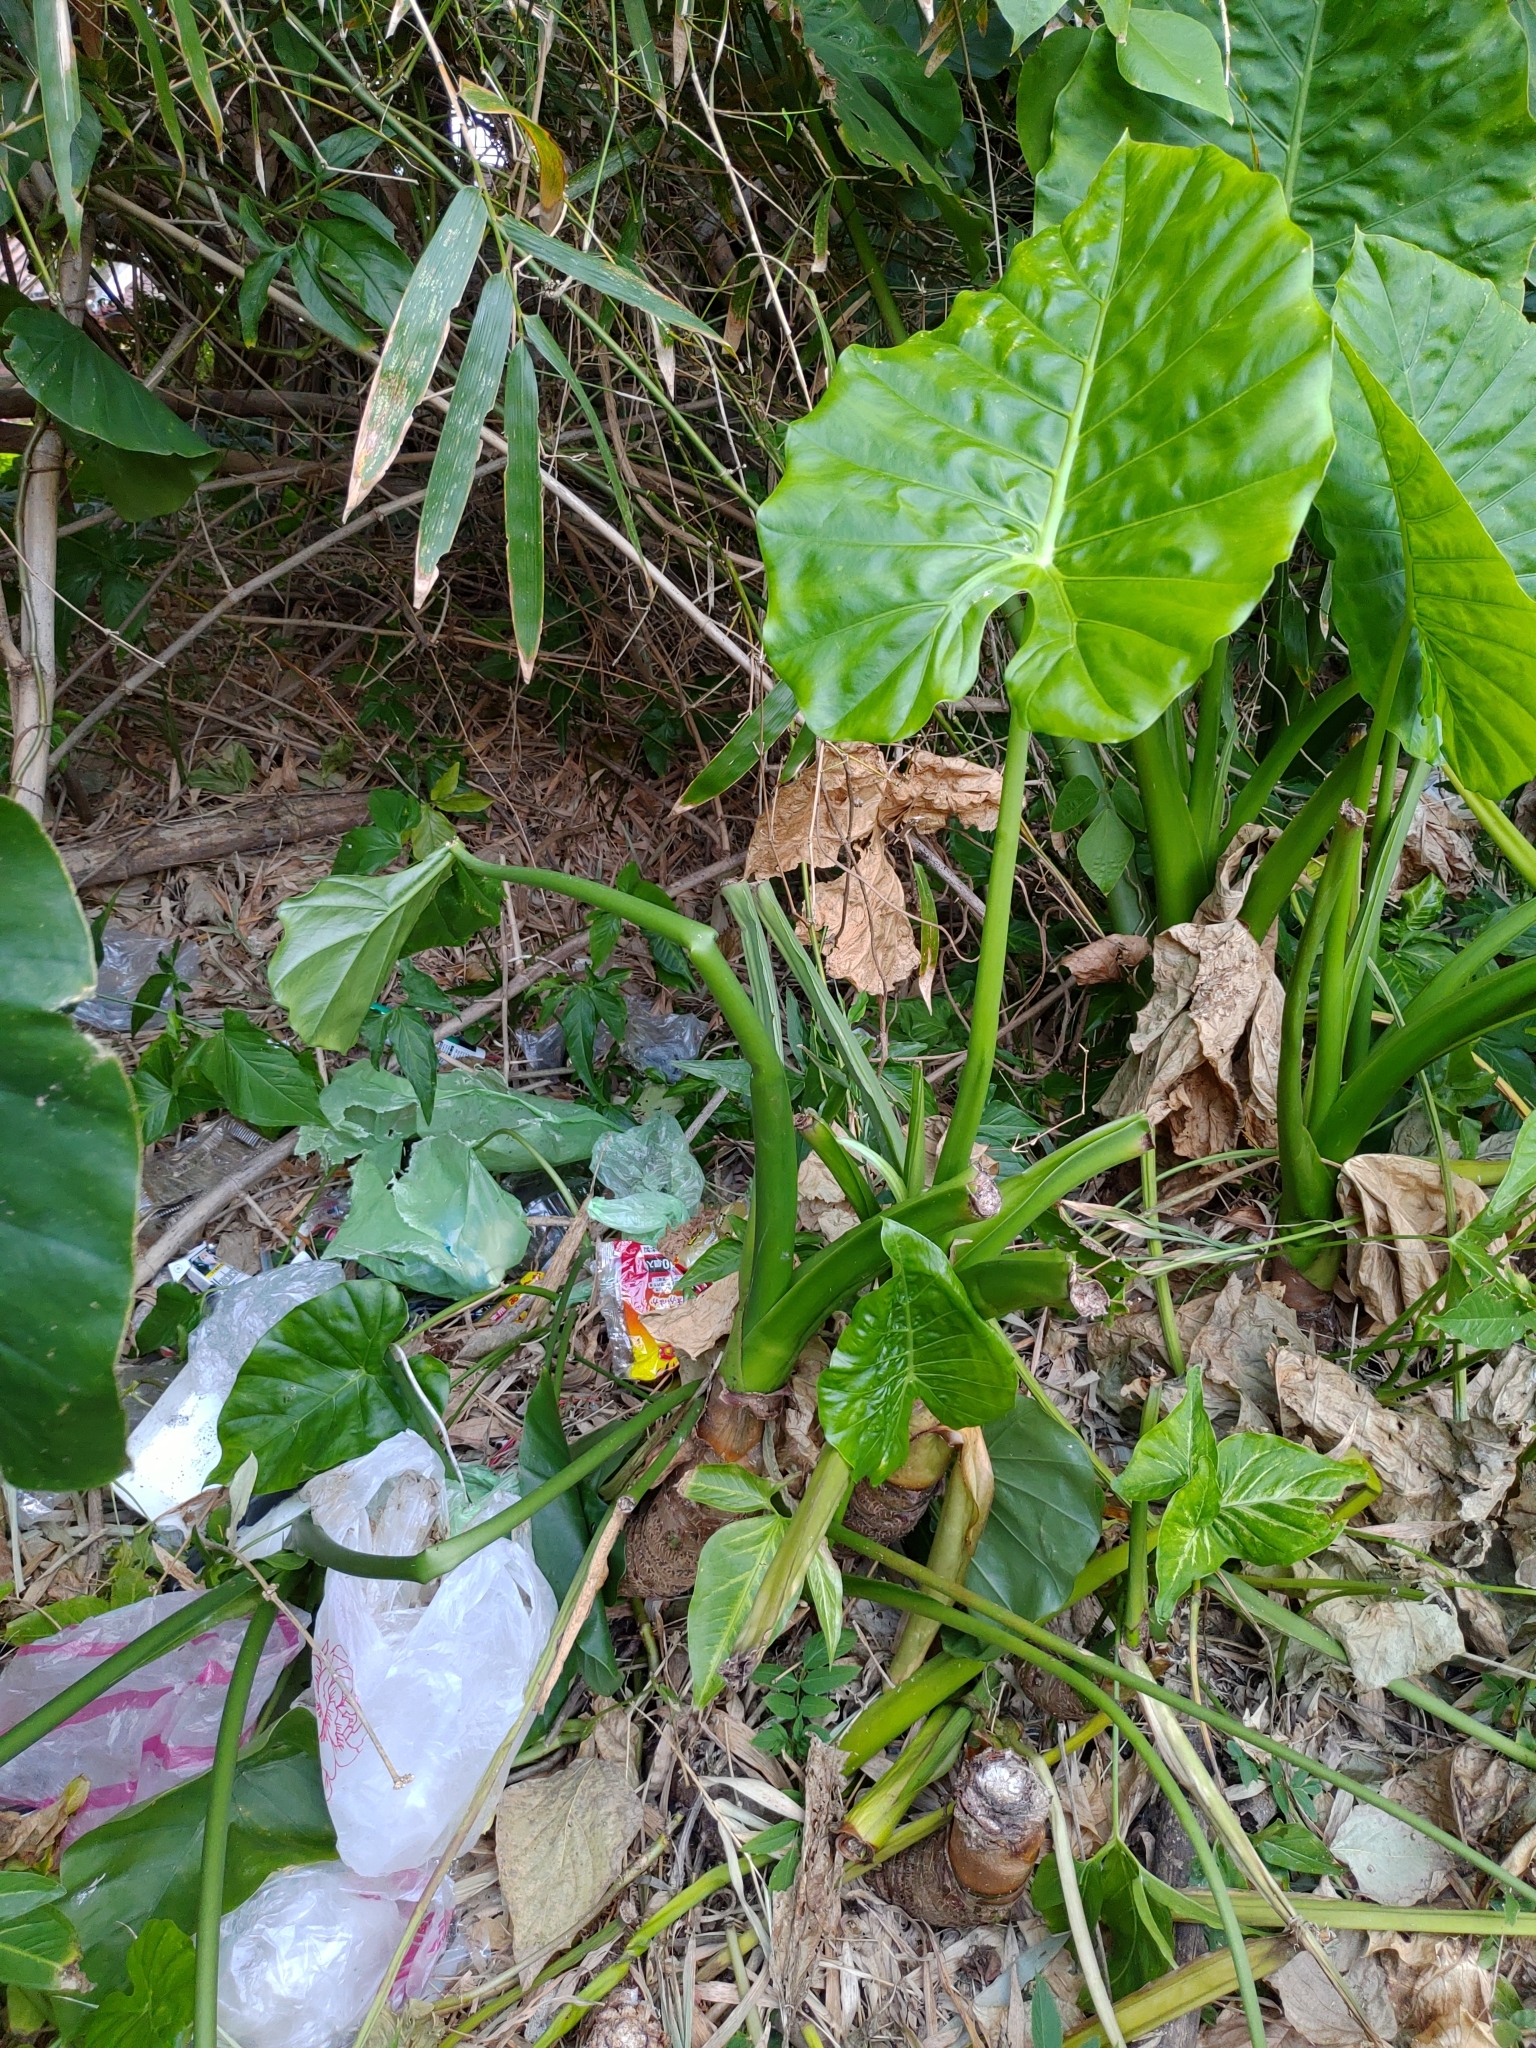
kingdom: Plantae
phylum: Tracheophyta
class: Liliopsida
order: Alismatales
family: Araceae
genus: Alocasia
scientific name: Alocasia odora
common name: Asian taro
